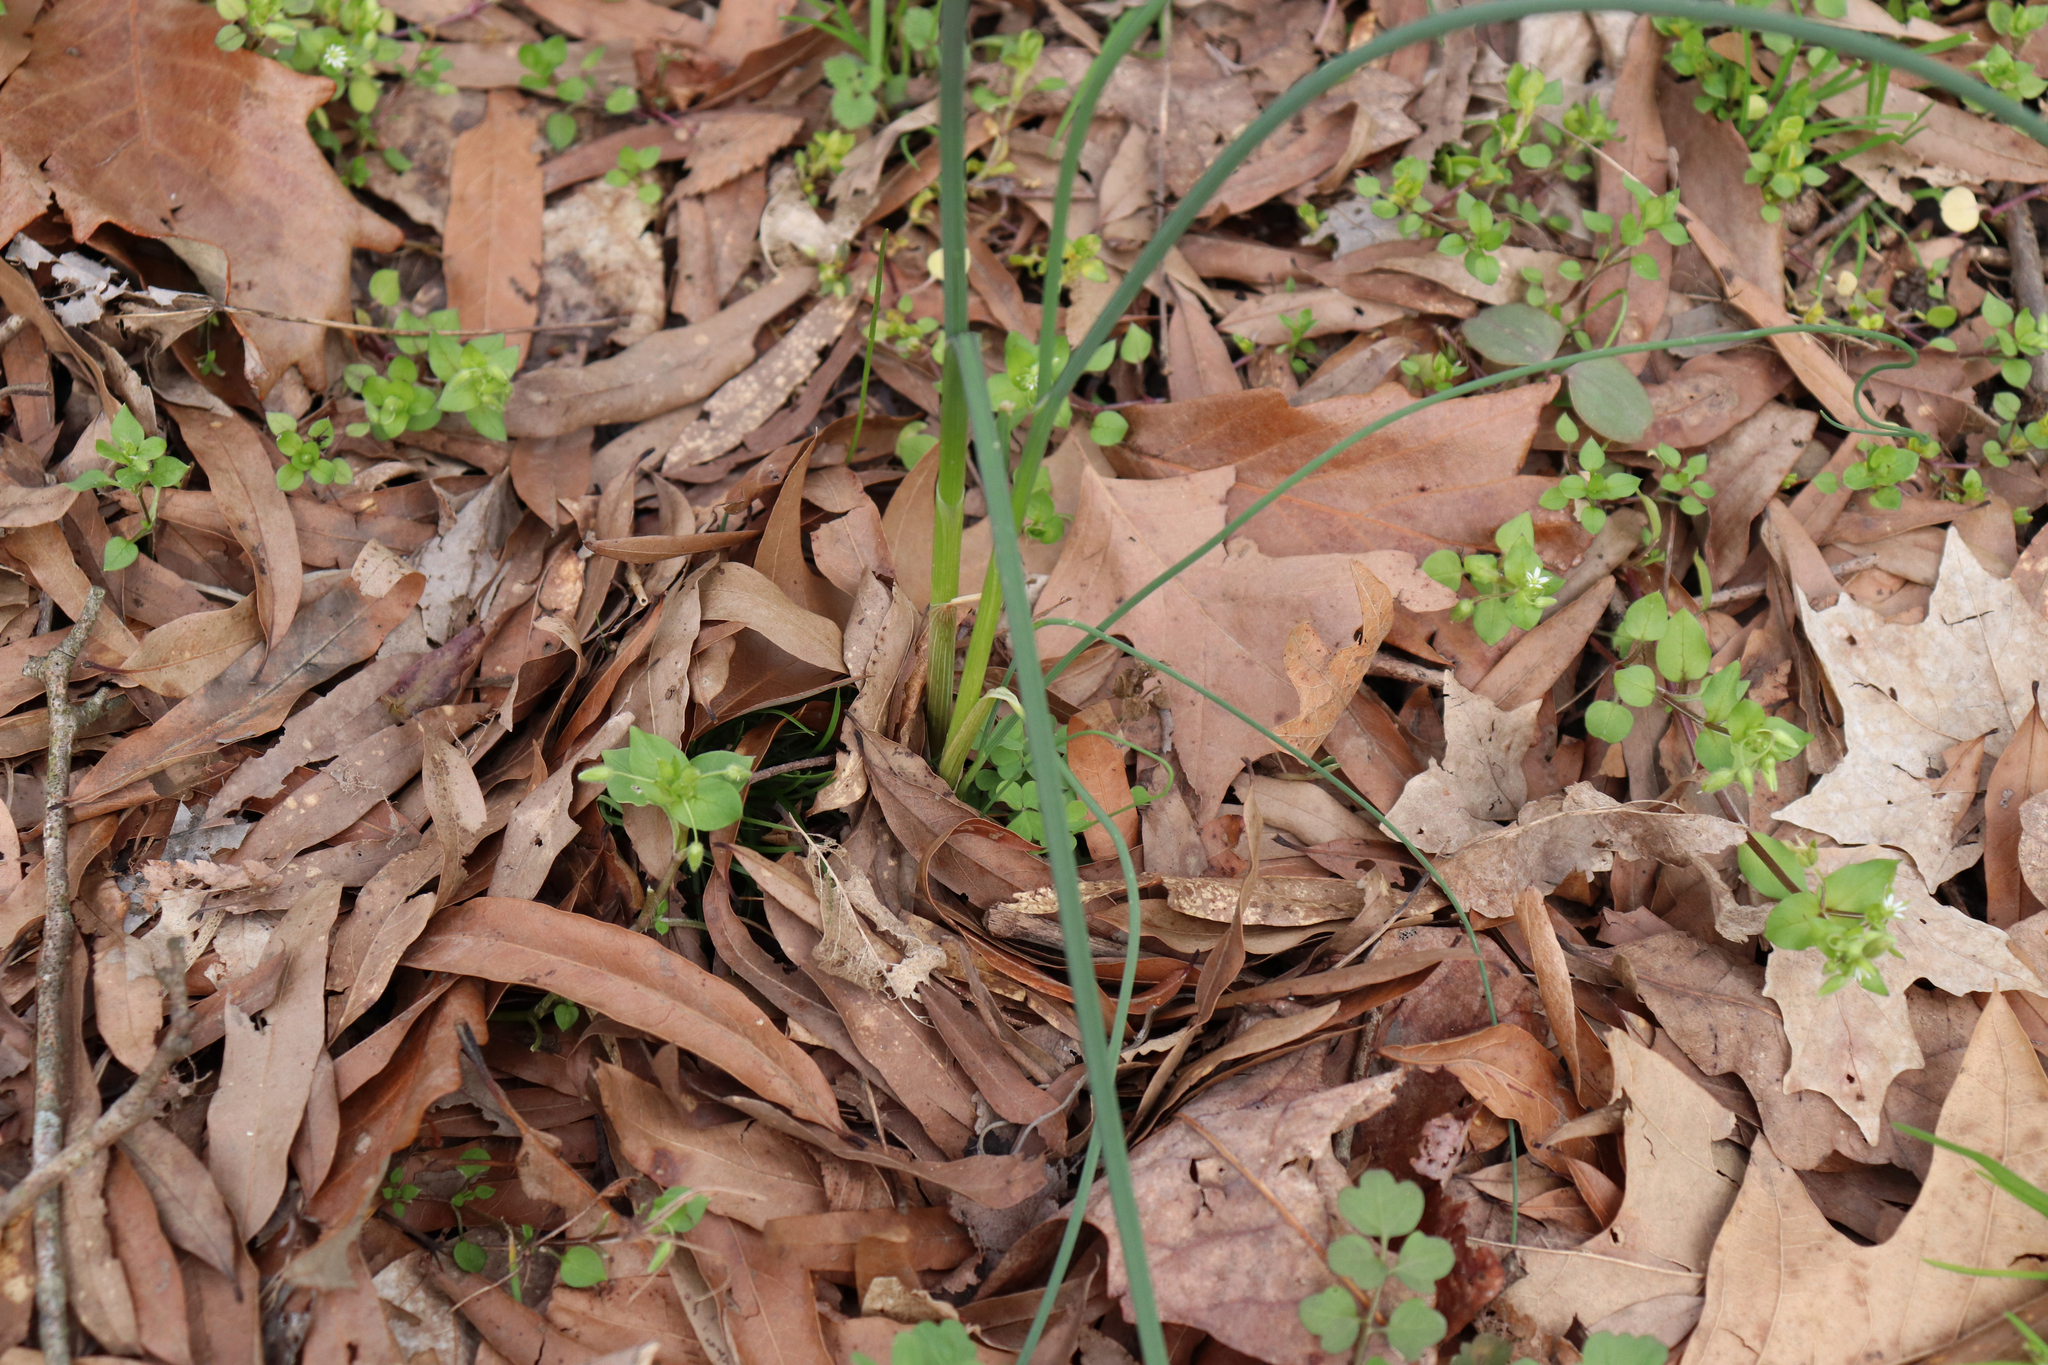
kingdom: Plantae
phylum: Tracheophyta
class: Liliopsida
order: Asparagales
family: Amaryllidaceae
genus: Allium
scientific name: Allium vineale
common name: Crow garlic
